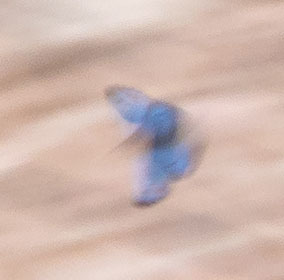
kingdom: Animalia
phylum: Arthropoda
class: Insecta
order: Lepidoptera
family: Lycaenidae
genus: Philotes
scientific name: Philotes sonorensis
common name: Sonoran blue
